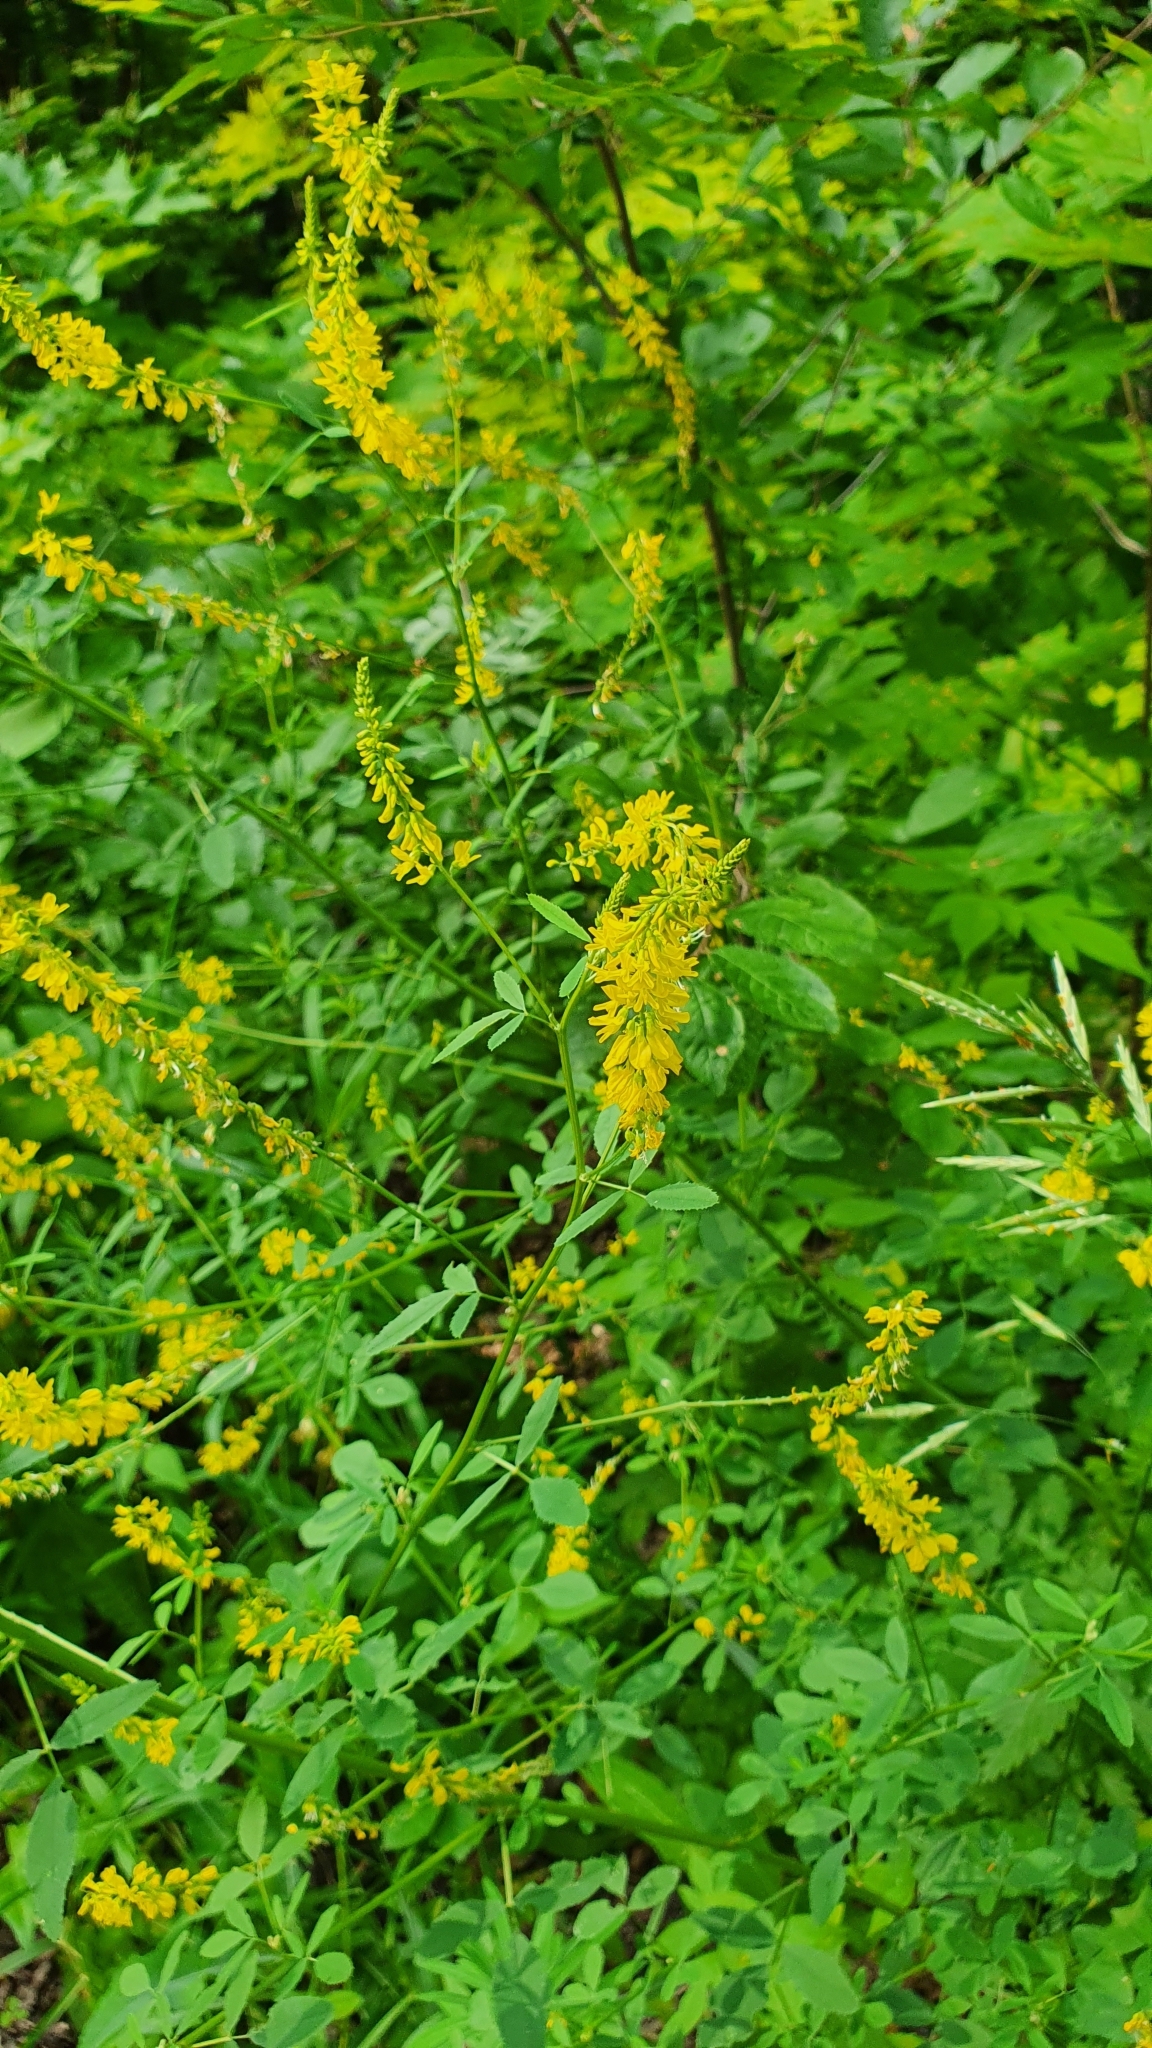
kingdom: Plantae
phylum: Tracheophyta
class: Magnoliopsida
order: Fabales
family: Fabaceae
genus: Melilotus
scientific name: Melilotus officinalis
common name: Sweetclover
